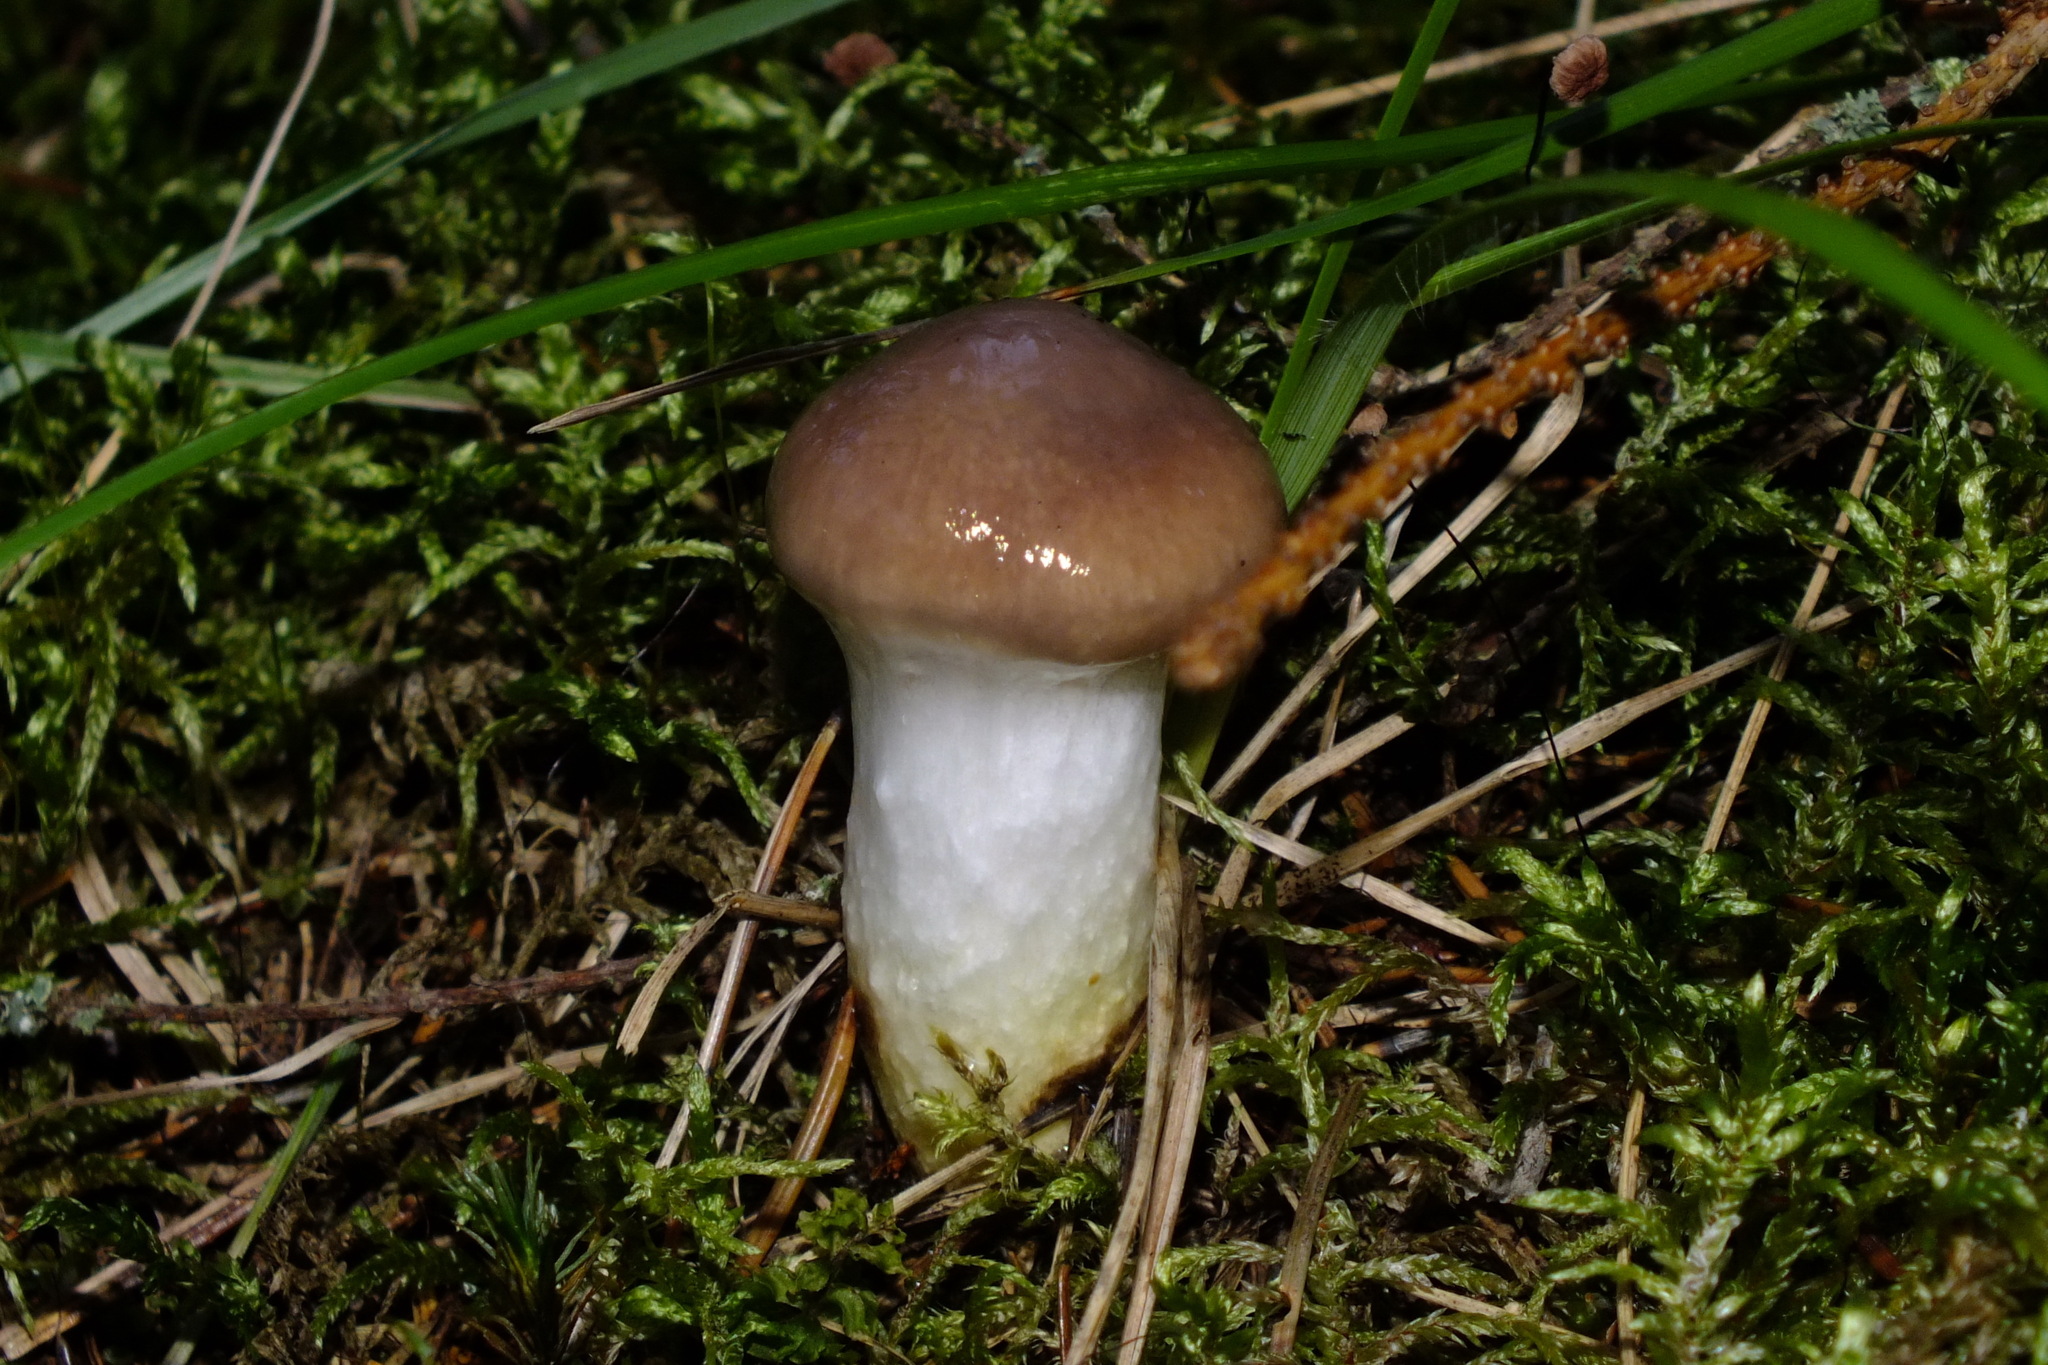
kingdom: Fungi
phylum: Basidiomycota
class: Agaricomycetes
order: Boletales
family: Gomphidiaceae
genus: Gomphidius
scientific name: Gomphidius glutinosus
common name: Slimy spike
